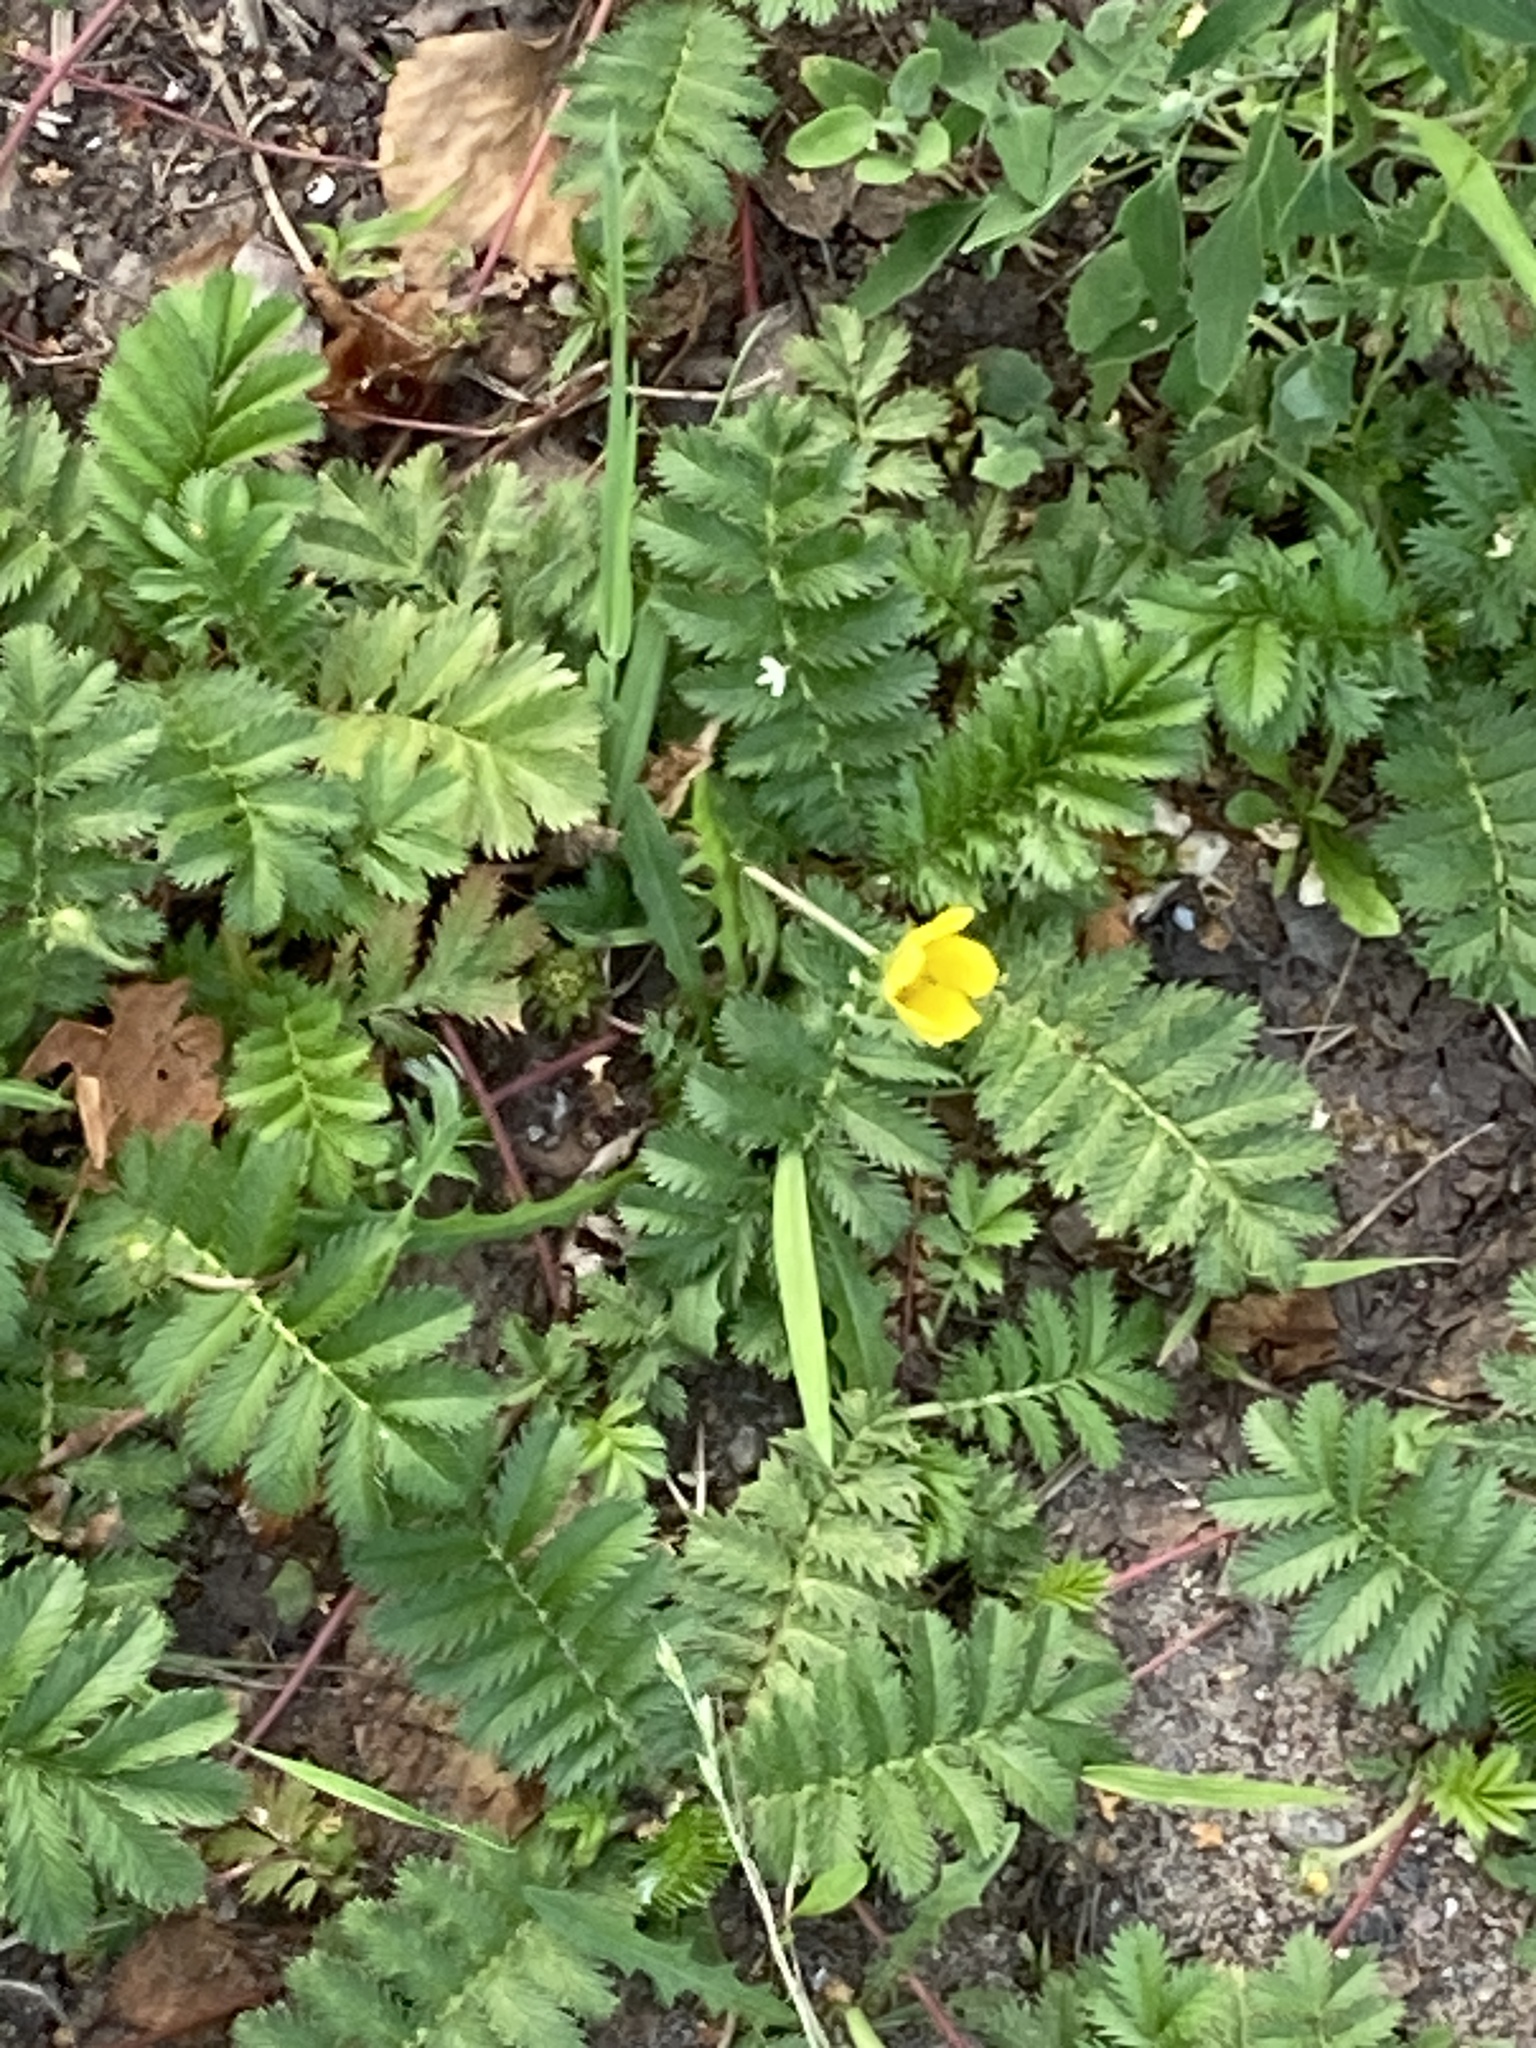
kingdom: Plantae
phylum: Tracheophyta
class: Magnoliopsida
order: Rosales
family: Rosaceae
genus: Argentina
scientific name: Argentina anserina
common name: Common silverweed
